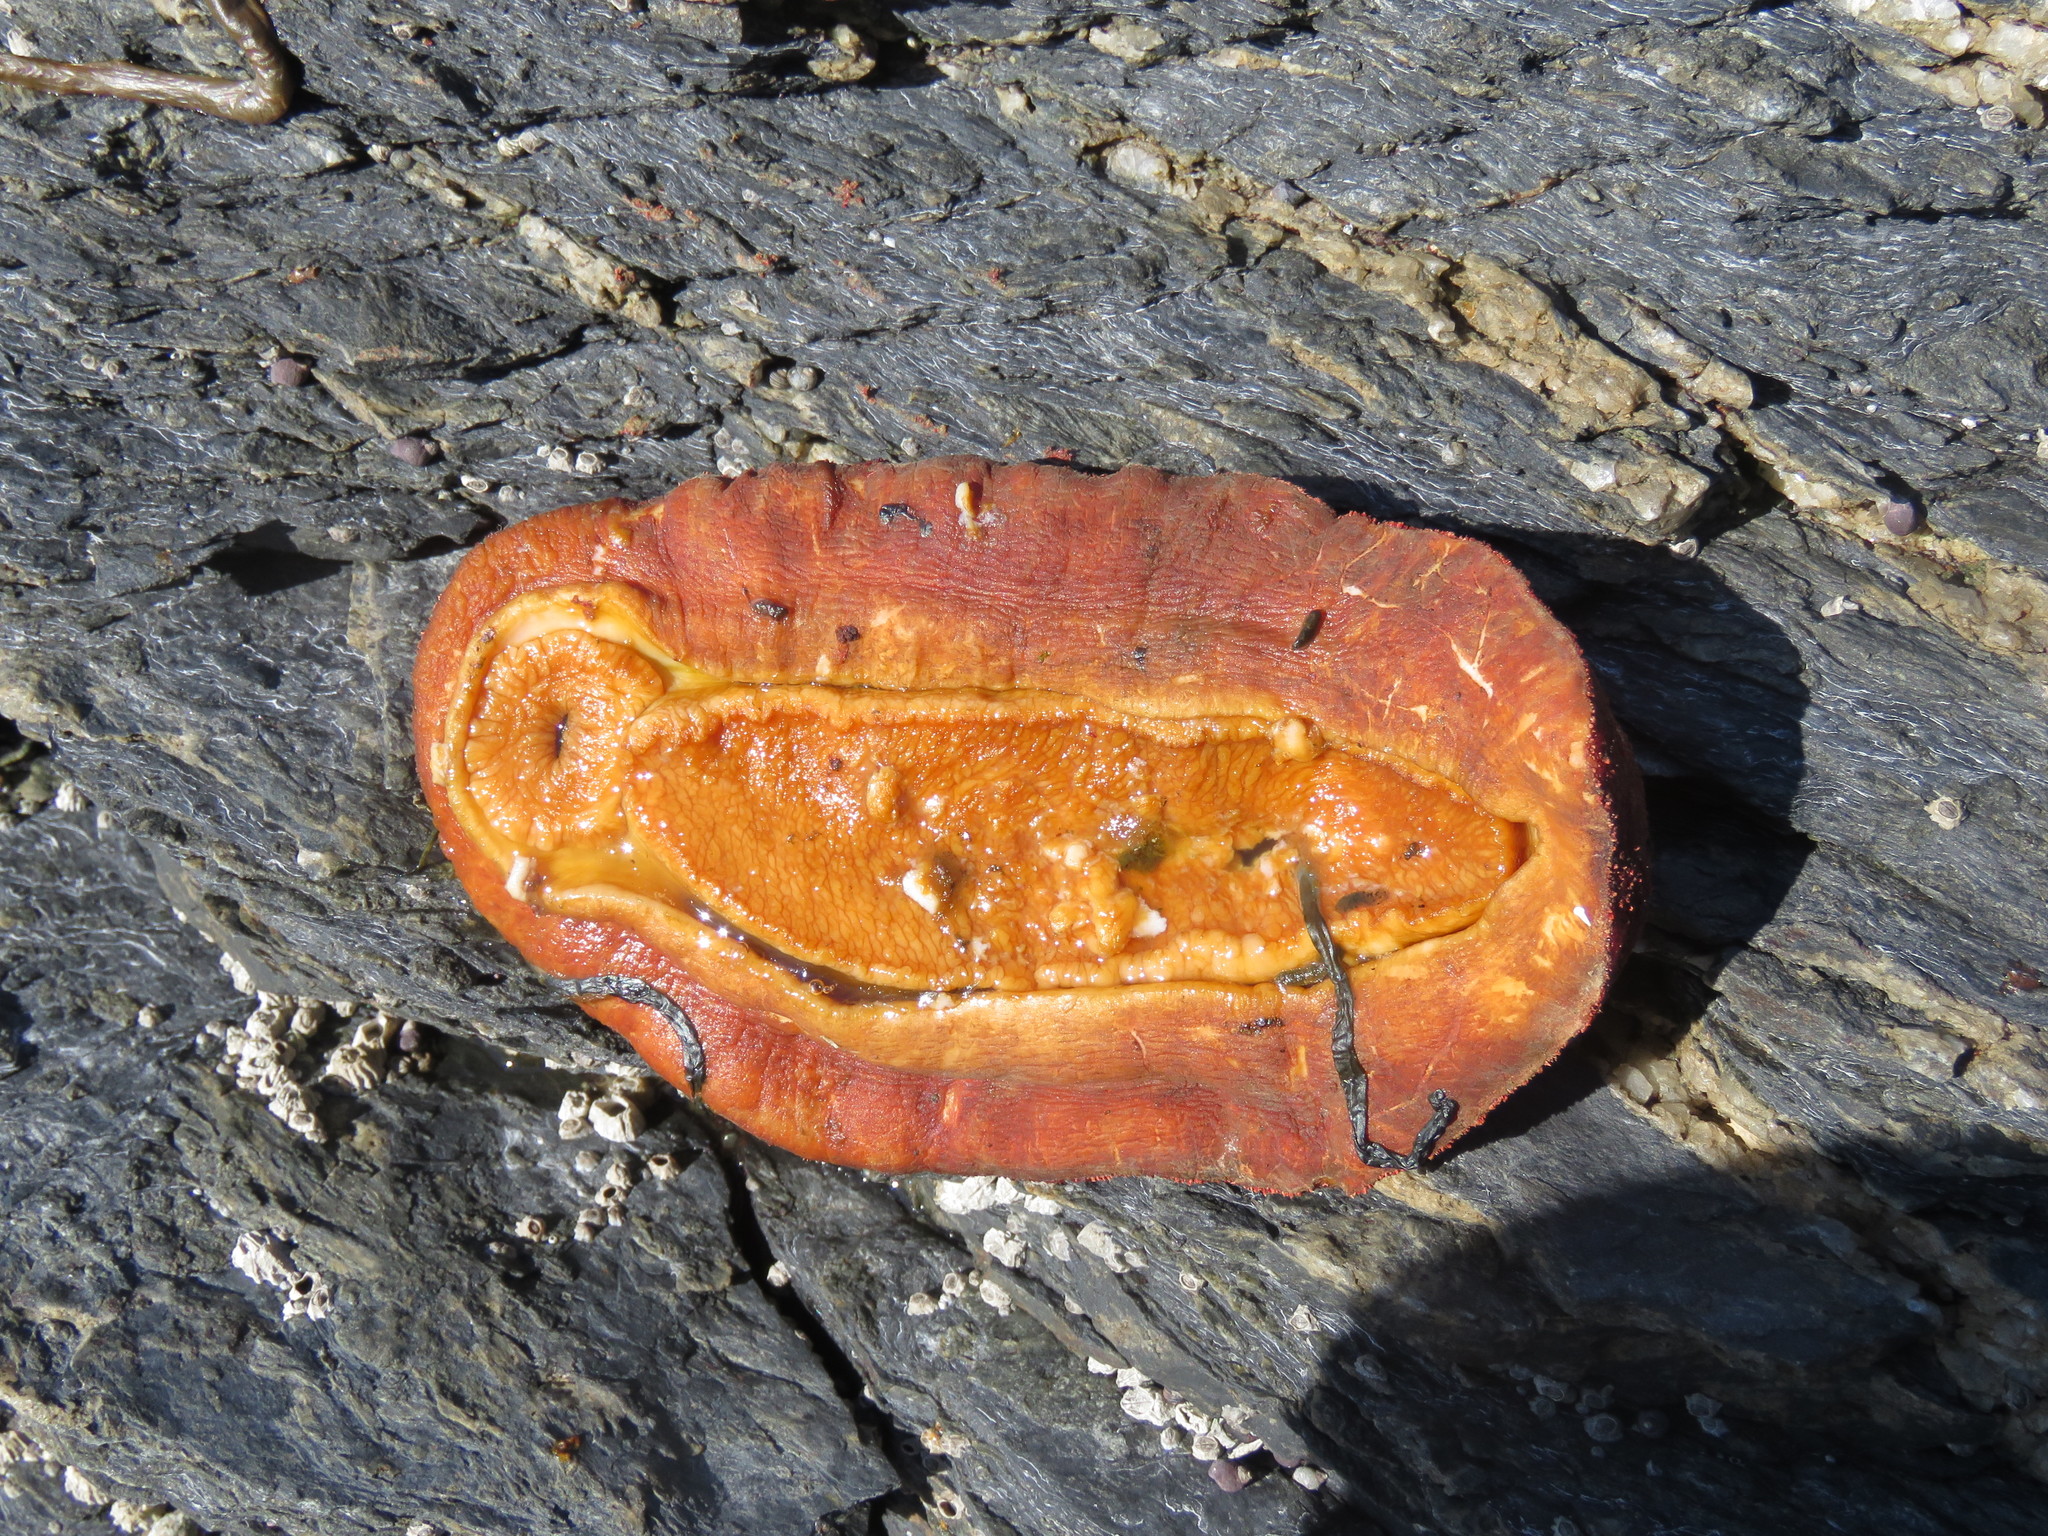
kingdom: Animalia
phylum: Mollusca
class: Polyplacophora
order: Chitonida
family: Acanthochitonidae
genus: Cryptochiton
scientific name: Cryptochiton stelleri
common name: Giant pacific chiton
